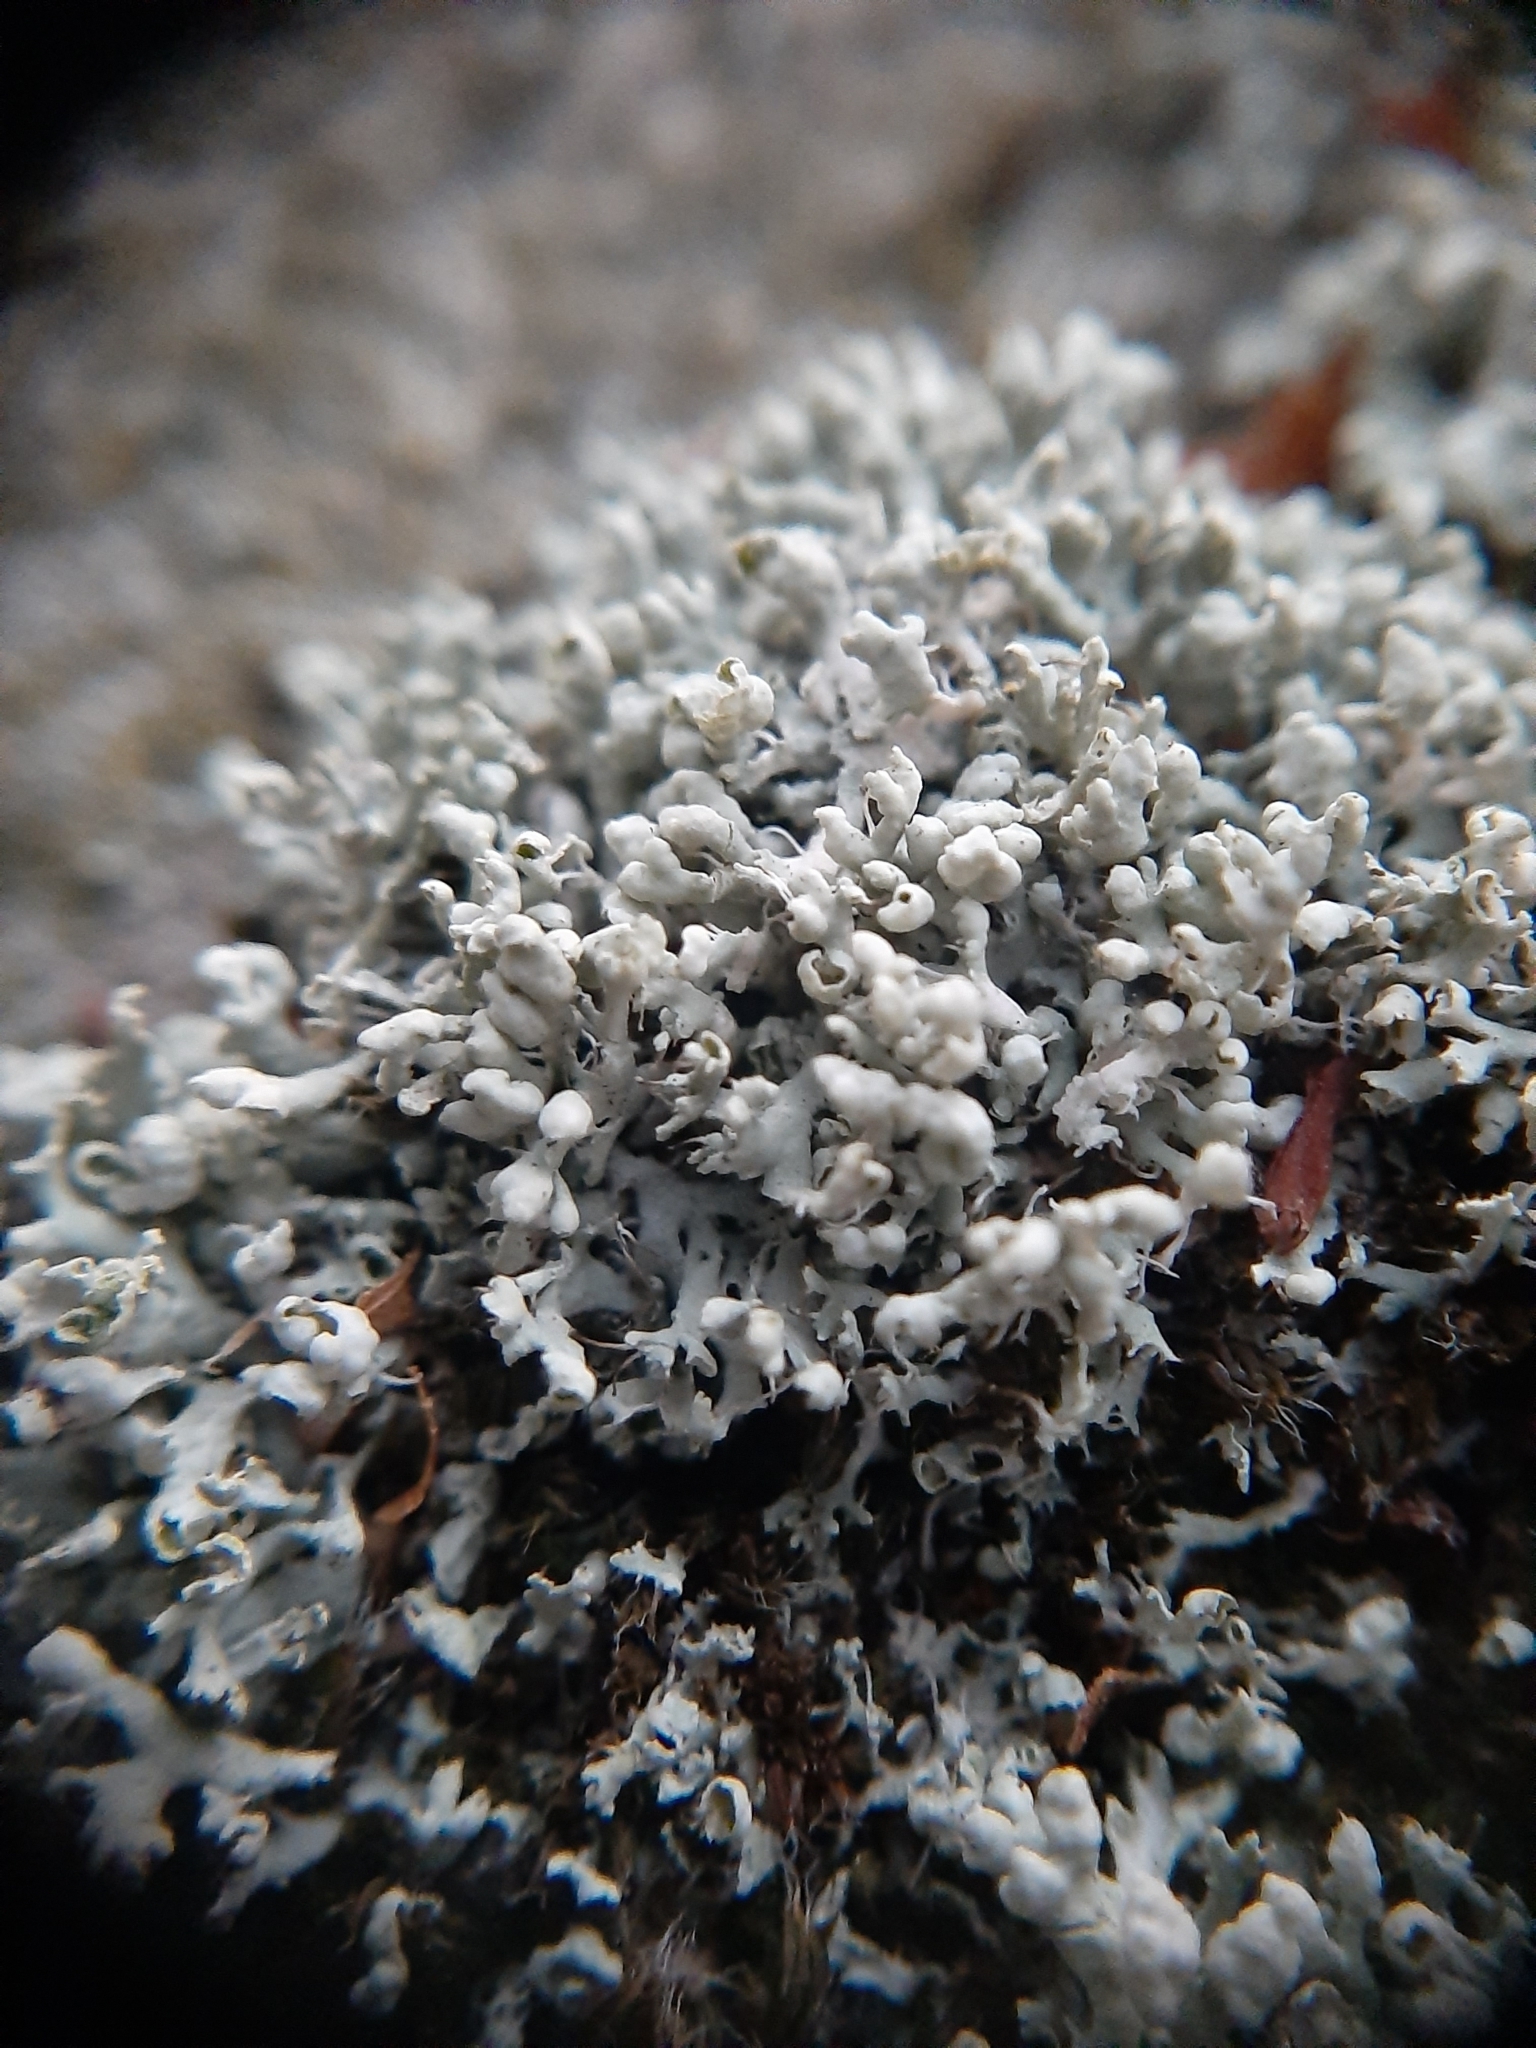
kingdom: Fungi
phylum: Ascomycota
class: Lecanoromycetes
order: Caliciales
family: Physciaceae
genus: Physcia
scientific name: Physcia adscendens
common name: Hooded rosette lichen
